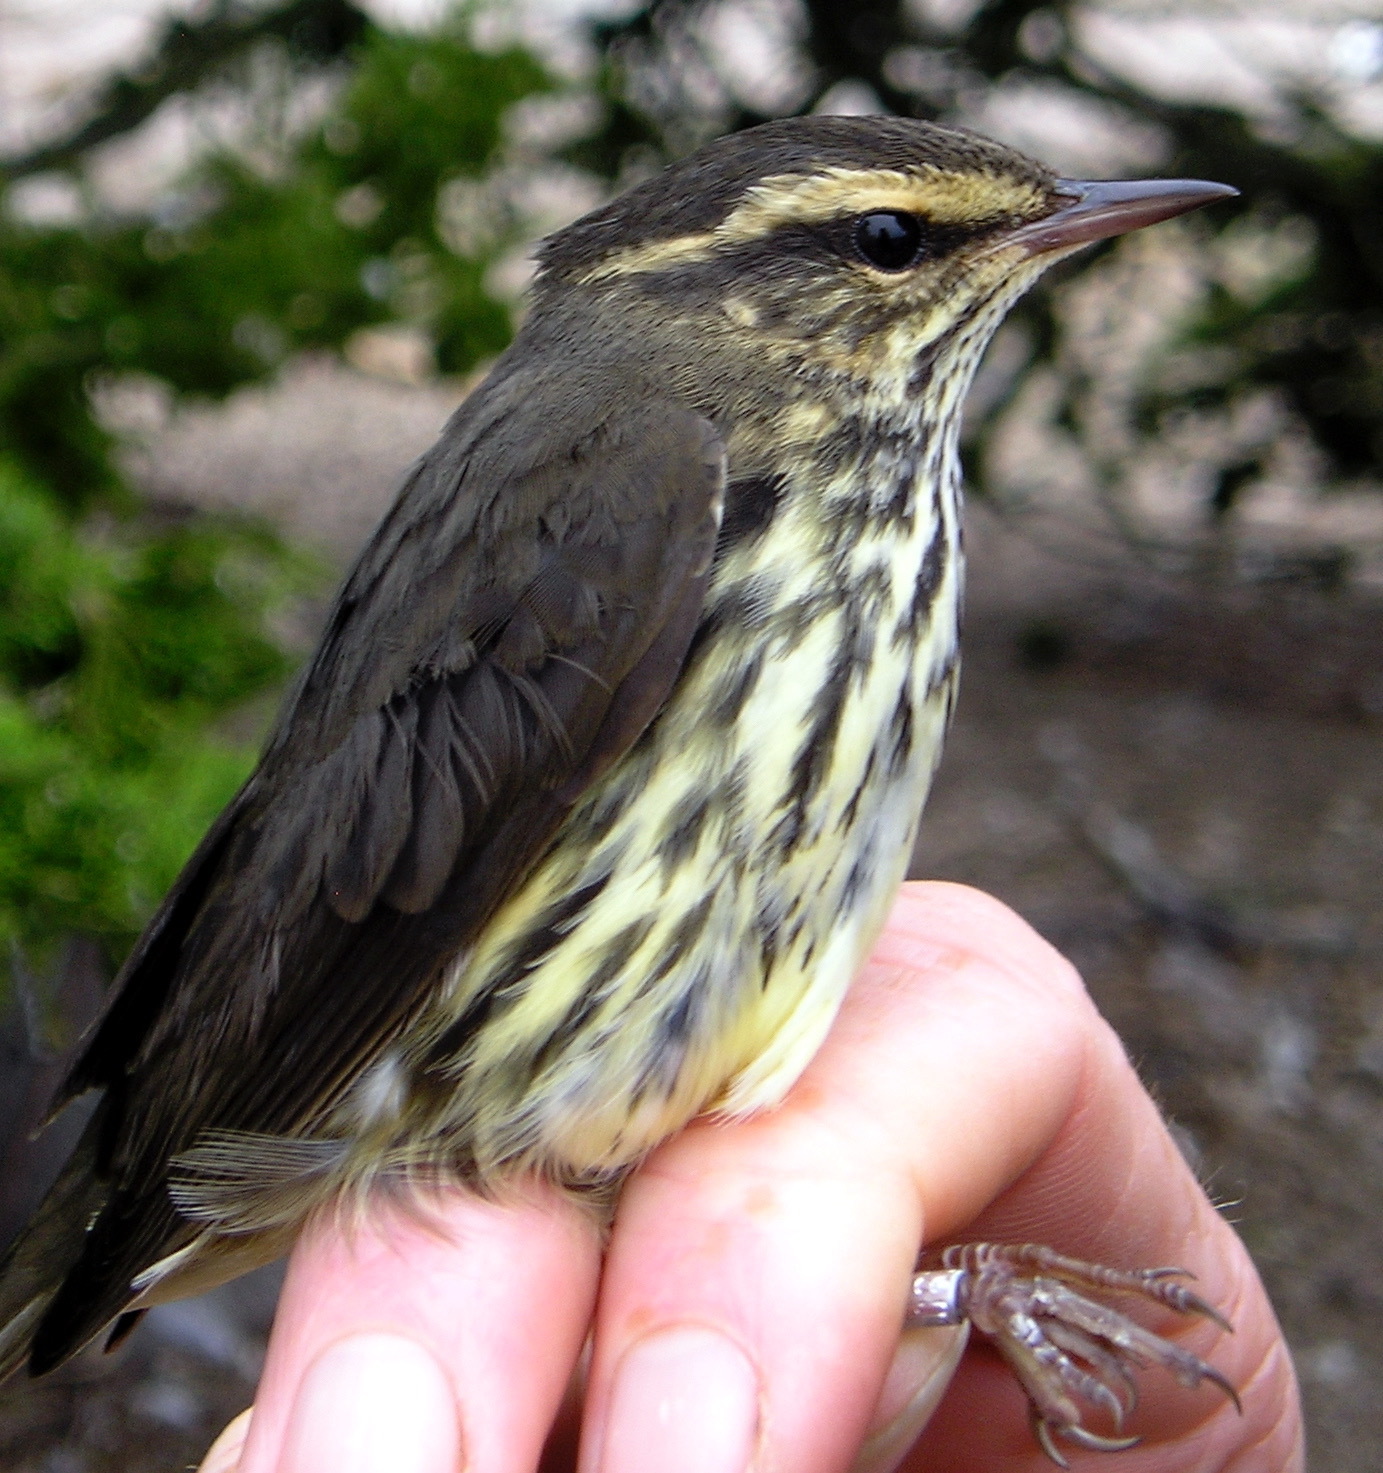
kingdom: Animalia
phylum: Chordata
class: Aves
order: Passeriformes
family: Parulidae
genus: Parkesia
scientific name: Parkesia noveboracensis
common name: Northern waterthrush
